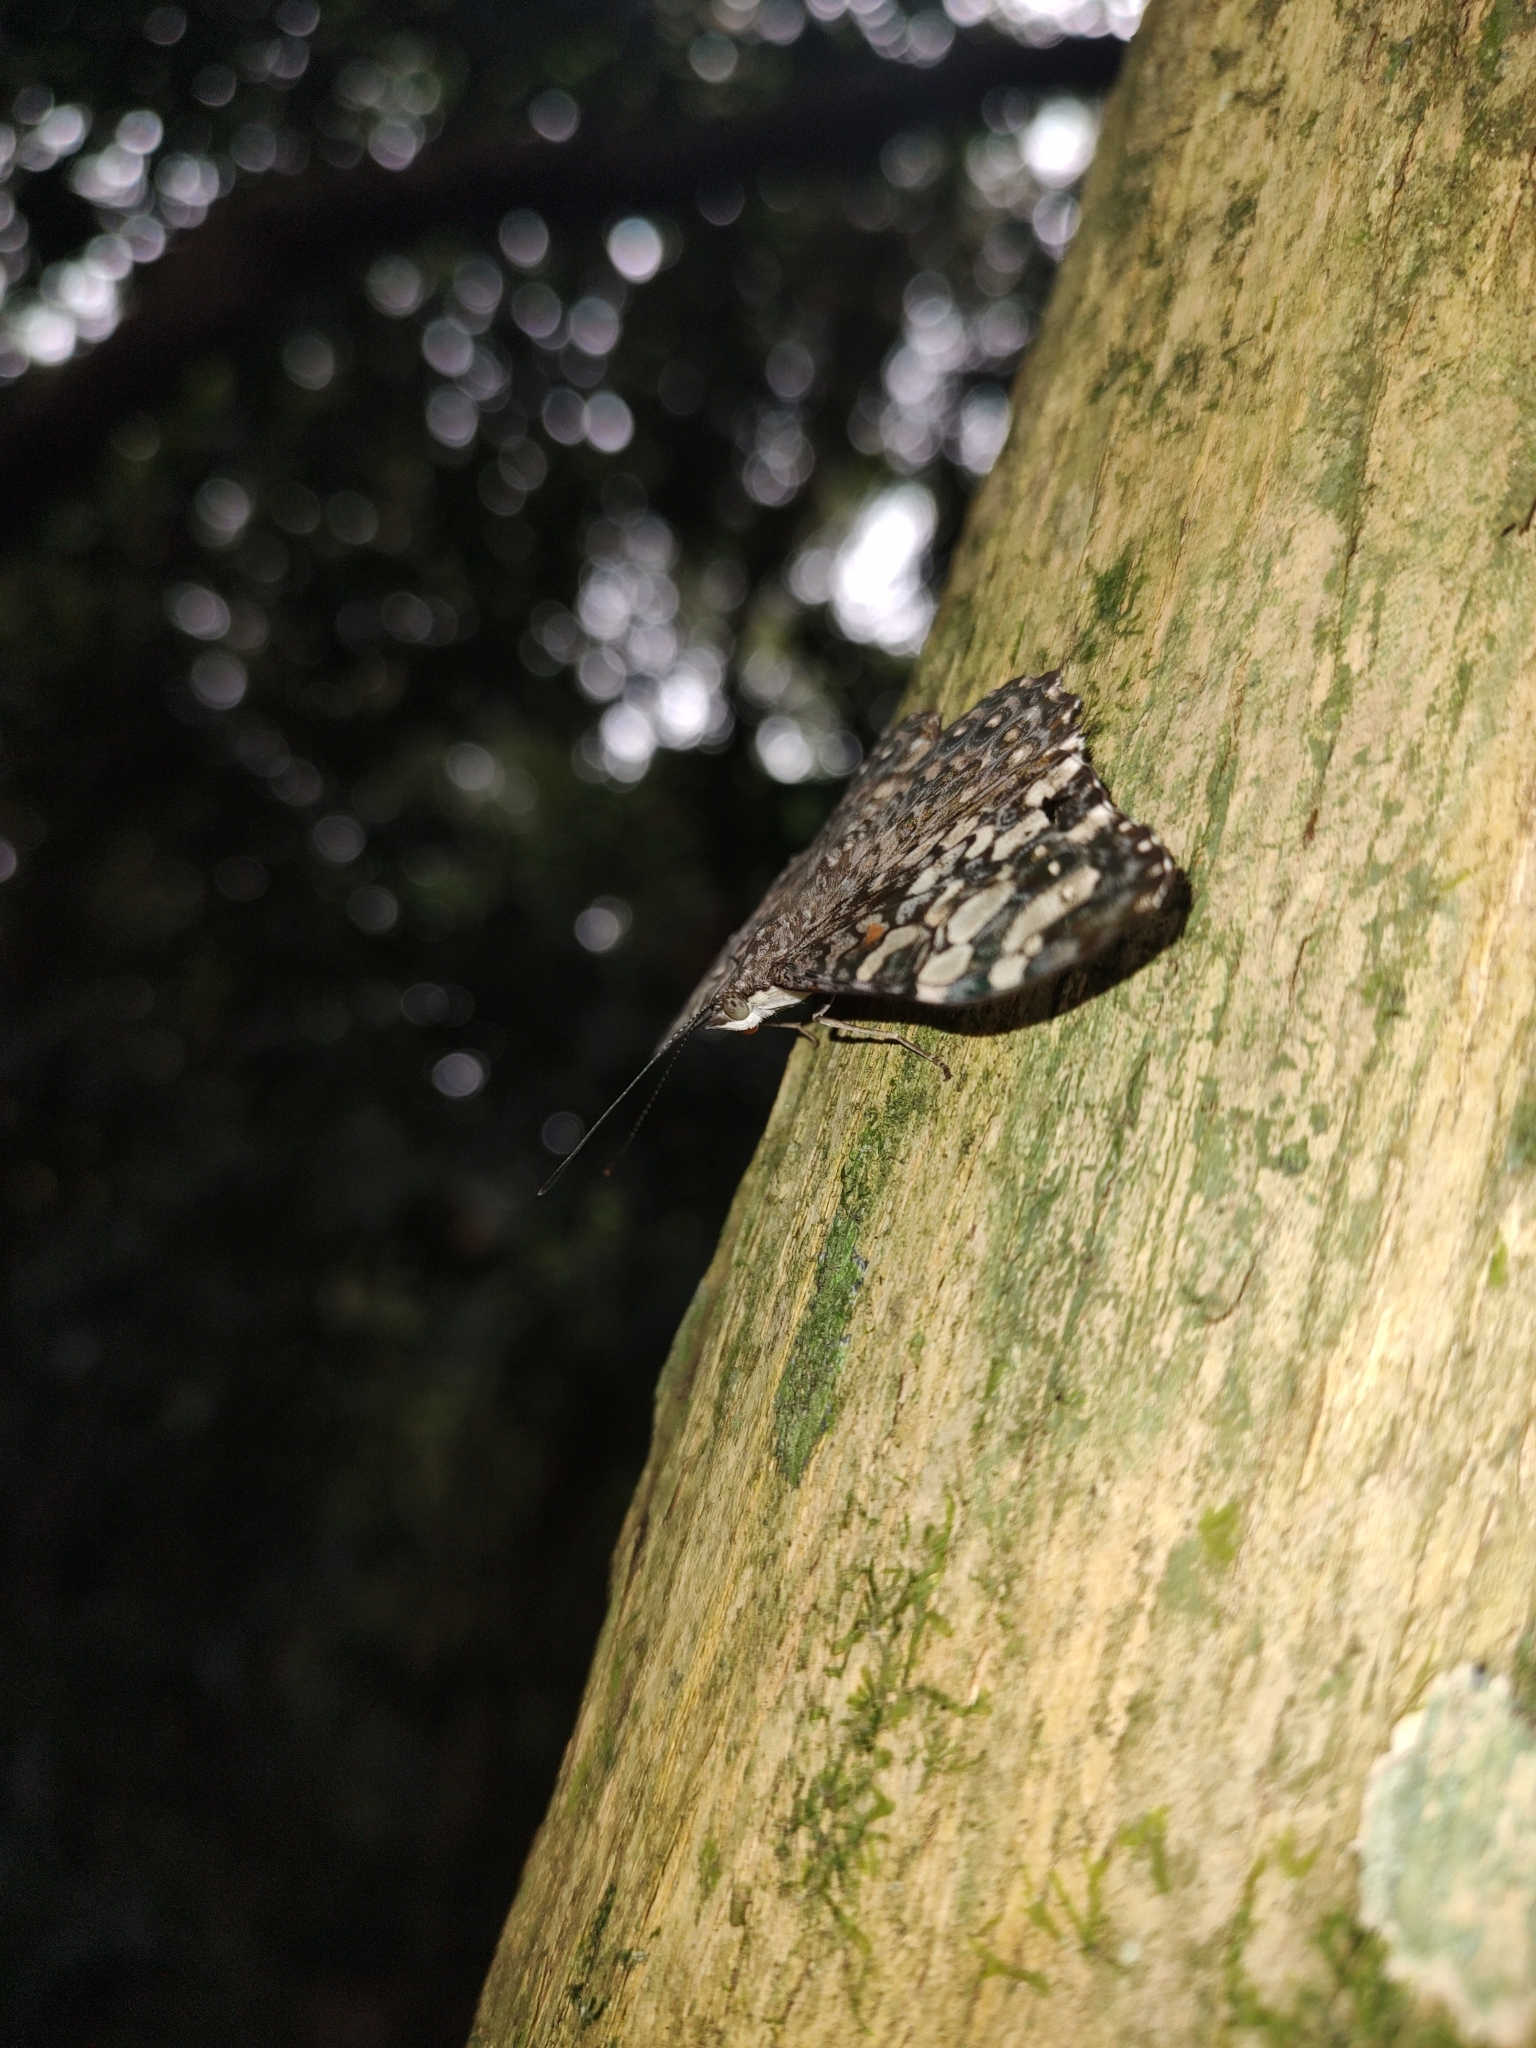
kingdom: Animalia
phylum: Arthropoda
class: Insecta
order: Lepidoptera
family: Nymphalidae
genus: Hamadryas
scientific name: Hamadryas epinome
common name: Epinome cracker
